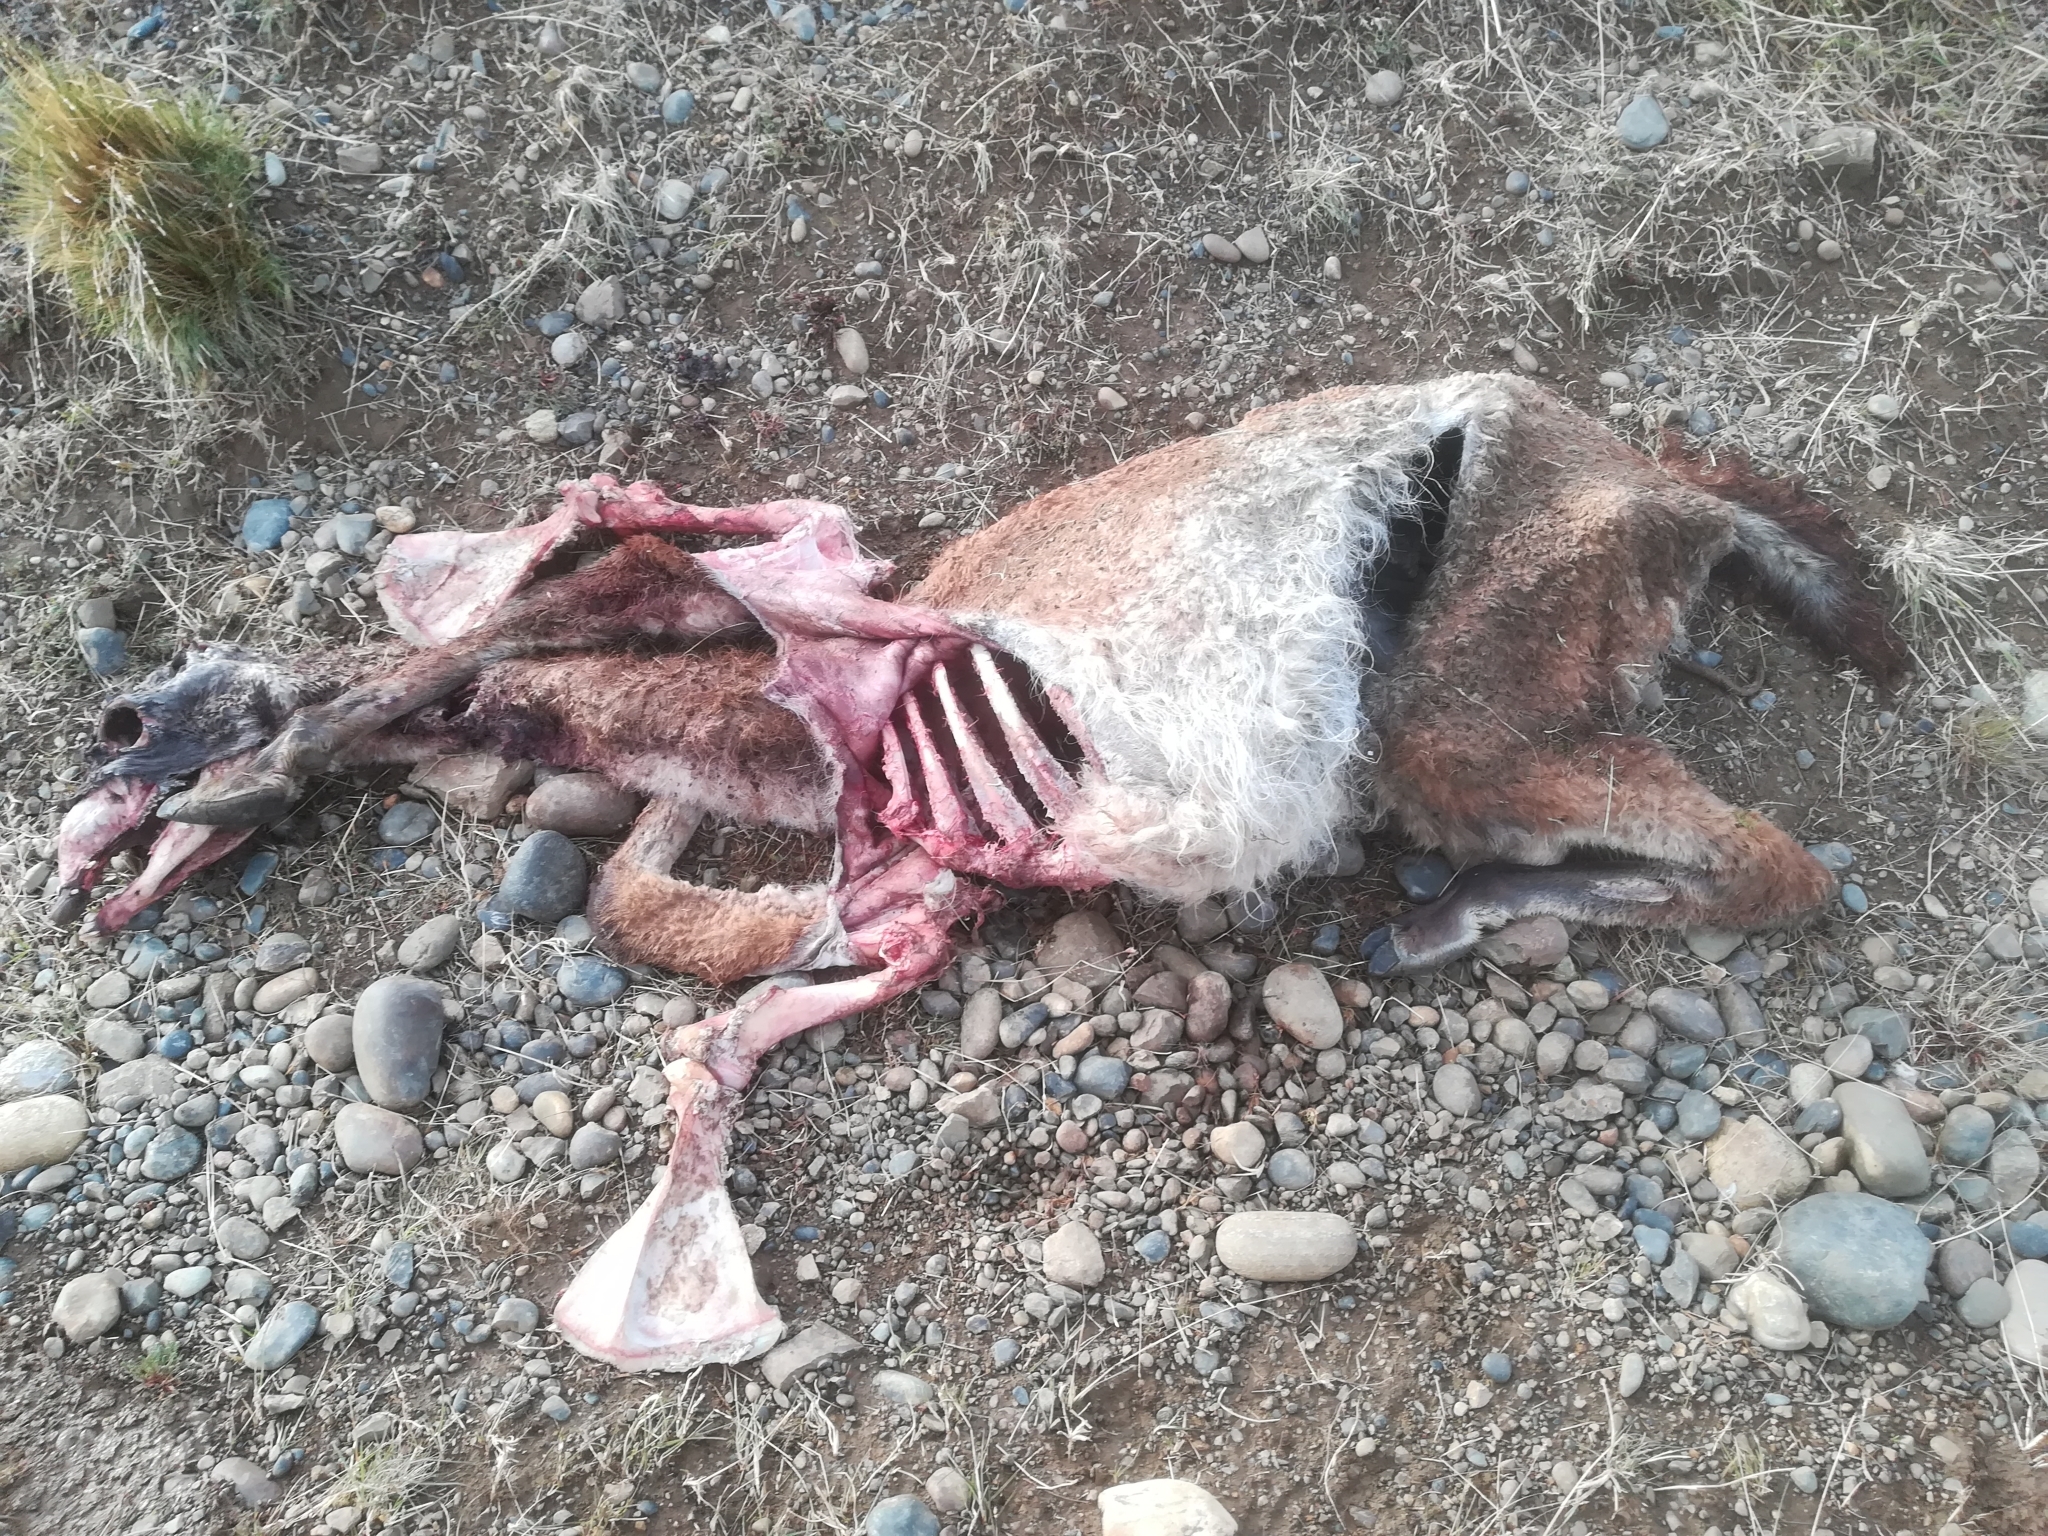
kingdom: Animalia
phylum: Chordata
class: Mammalia
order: Artiodactyla
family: Camelidae
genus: Lama
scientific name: Lama glama
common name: Llama
